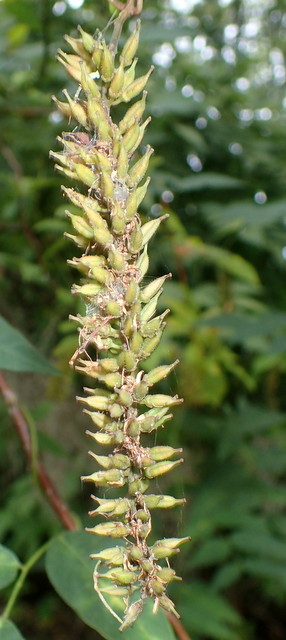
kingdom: Plantae
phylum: Tracheophyta
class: Magnoliopsida
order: Saxifragales
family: Iteaceae
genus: Itea
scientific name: Itea virginica
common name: Sweetspire
